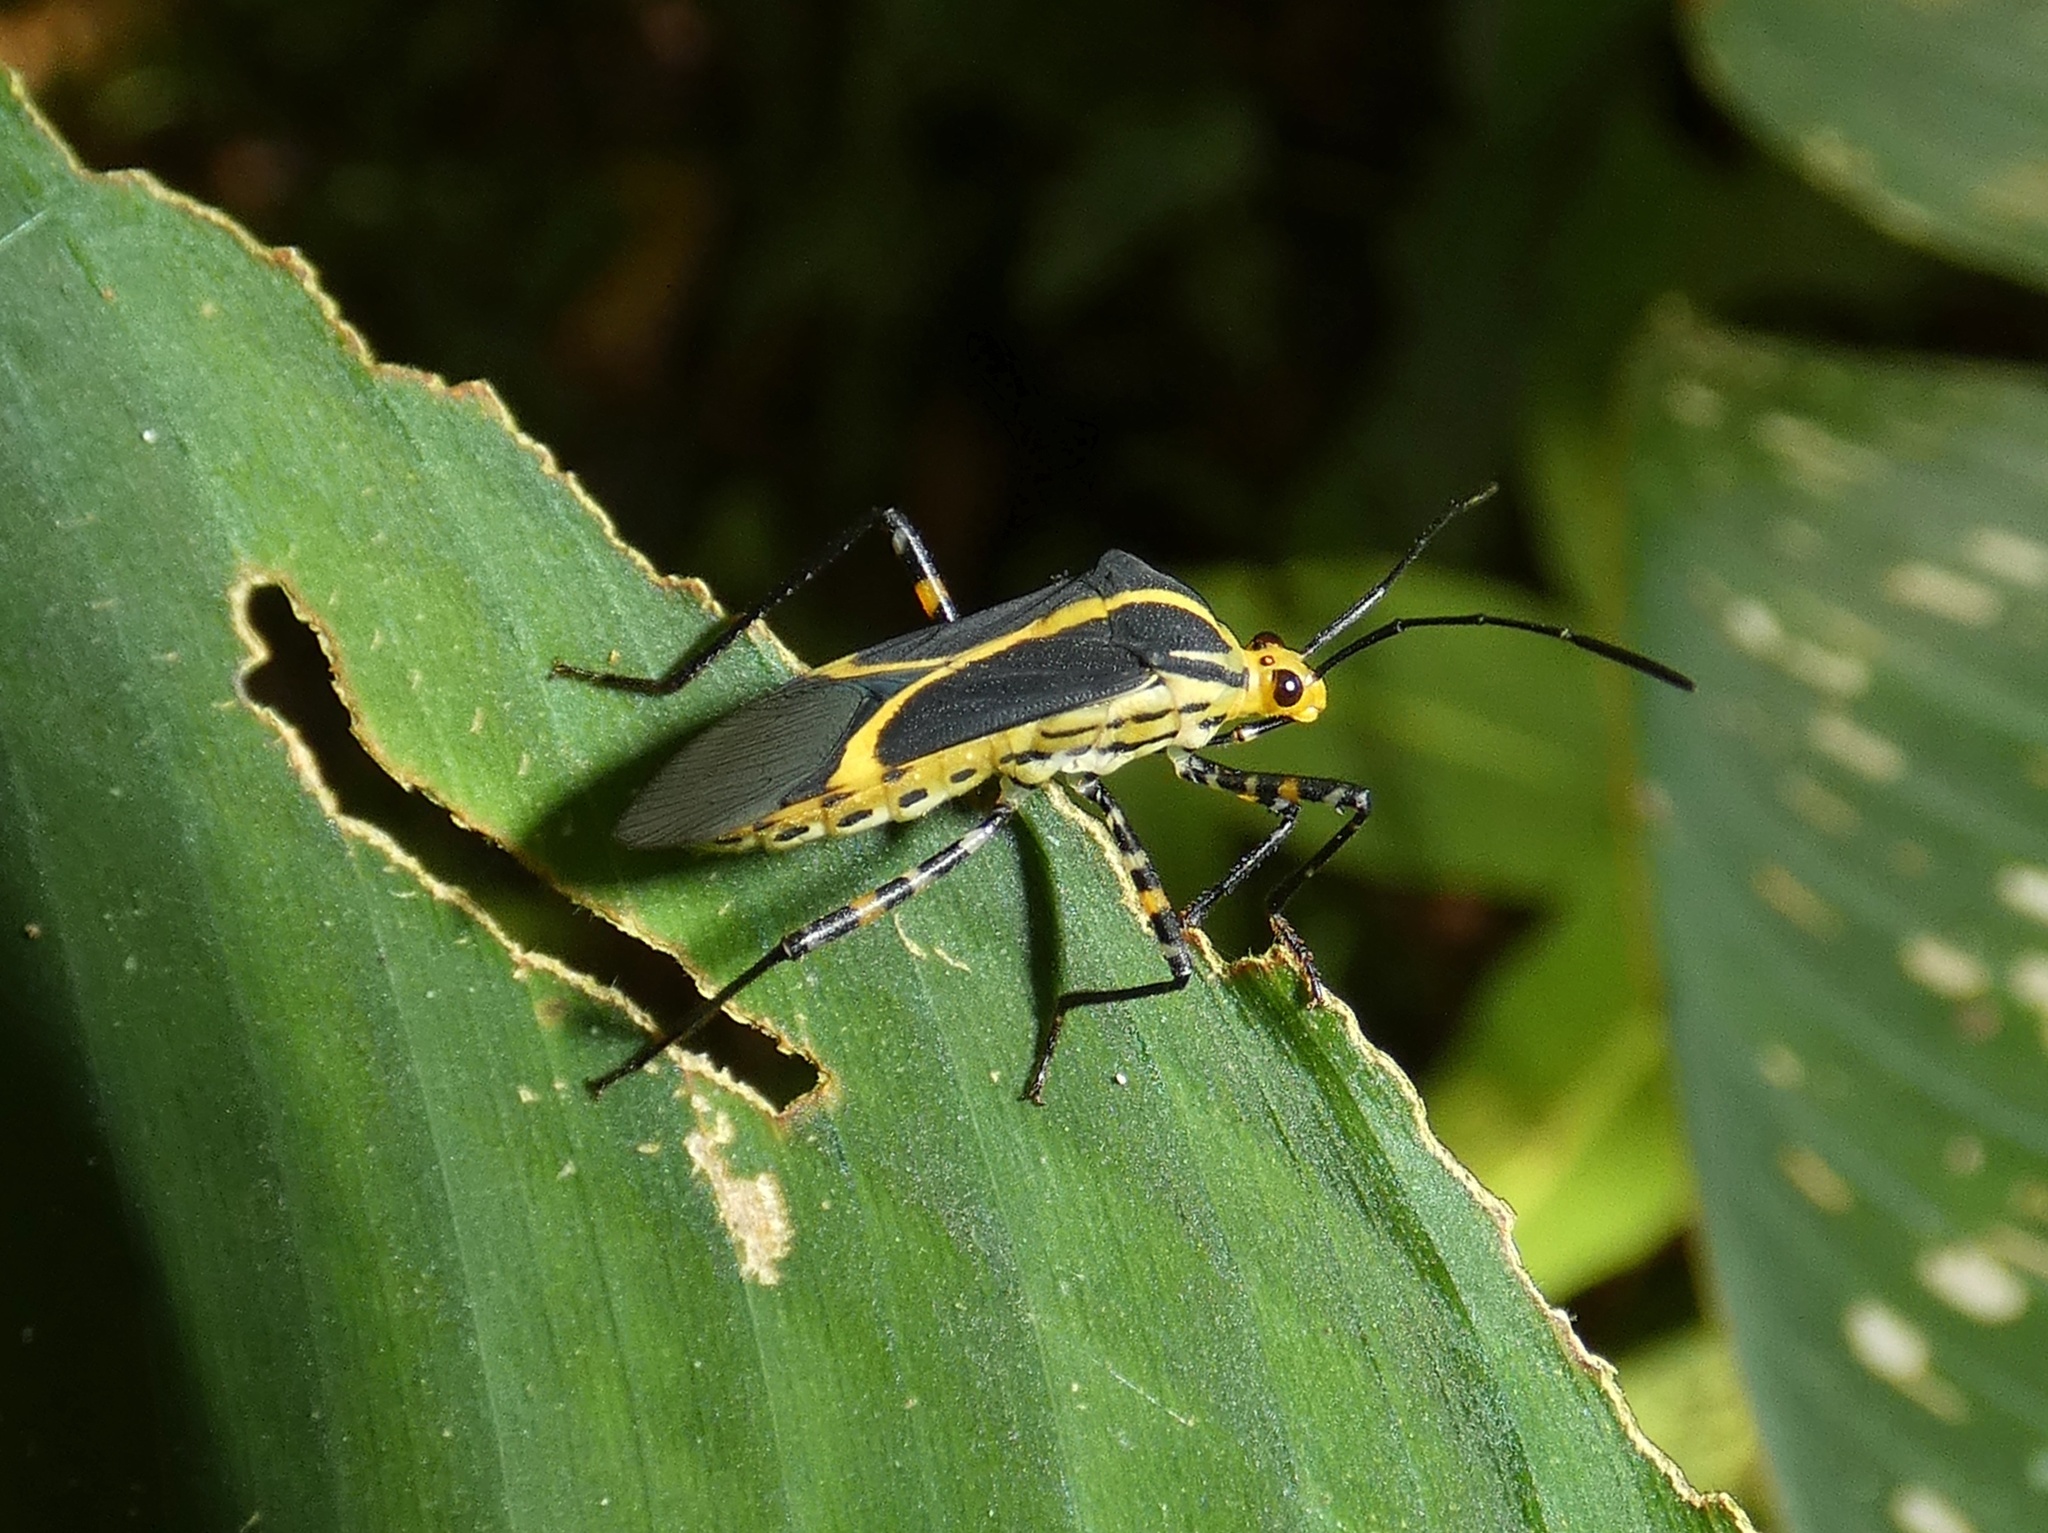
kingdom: Animalia
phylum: Arthropoda
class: Insecta
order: Hemiptera
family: Coreidae
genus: Hypselonotus
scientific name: Hypselonotus linea
